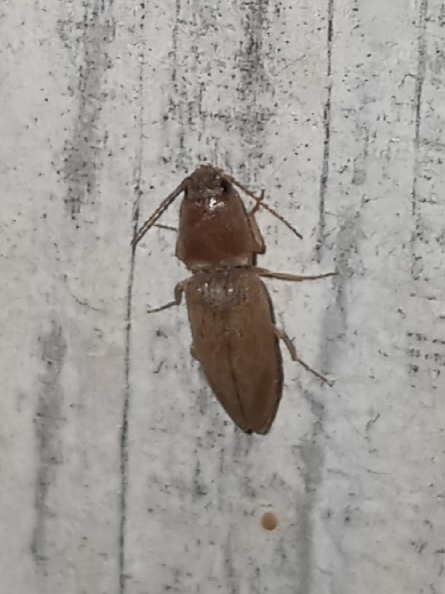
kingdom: Animalia
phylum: Arthropoda
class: Insecta
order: Coleoptera
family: Elateridae
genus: Monocrepidius
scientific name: Monocrepidius scissus
